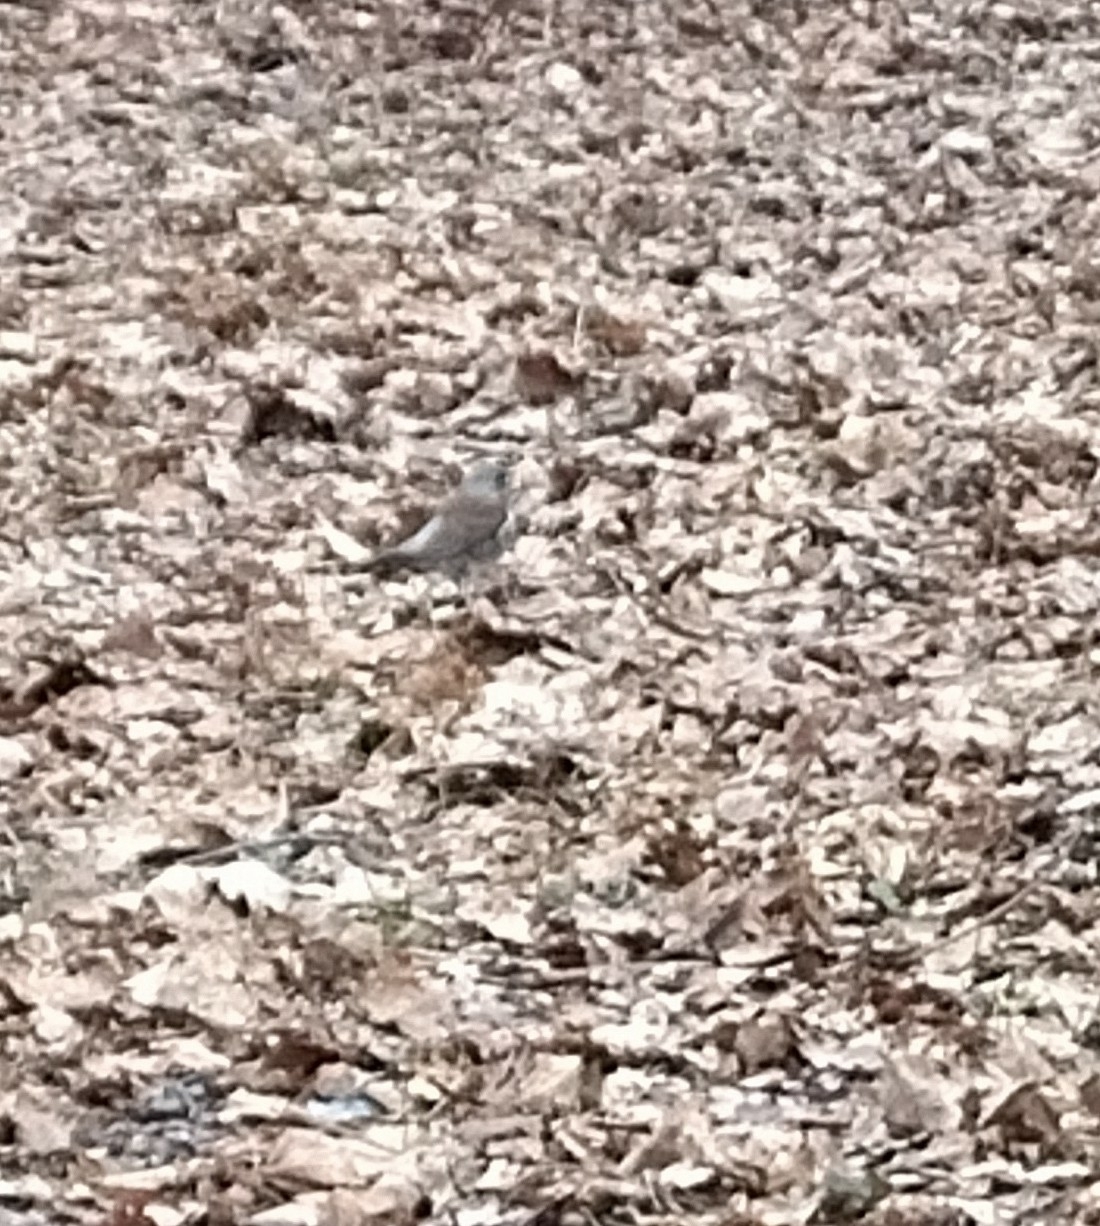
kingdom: Animalia
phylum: Chordata
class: Aves
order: Passeriformes
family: Turdidae
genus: Turdus
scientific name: Turdus pilaris
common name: Fieldfare
